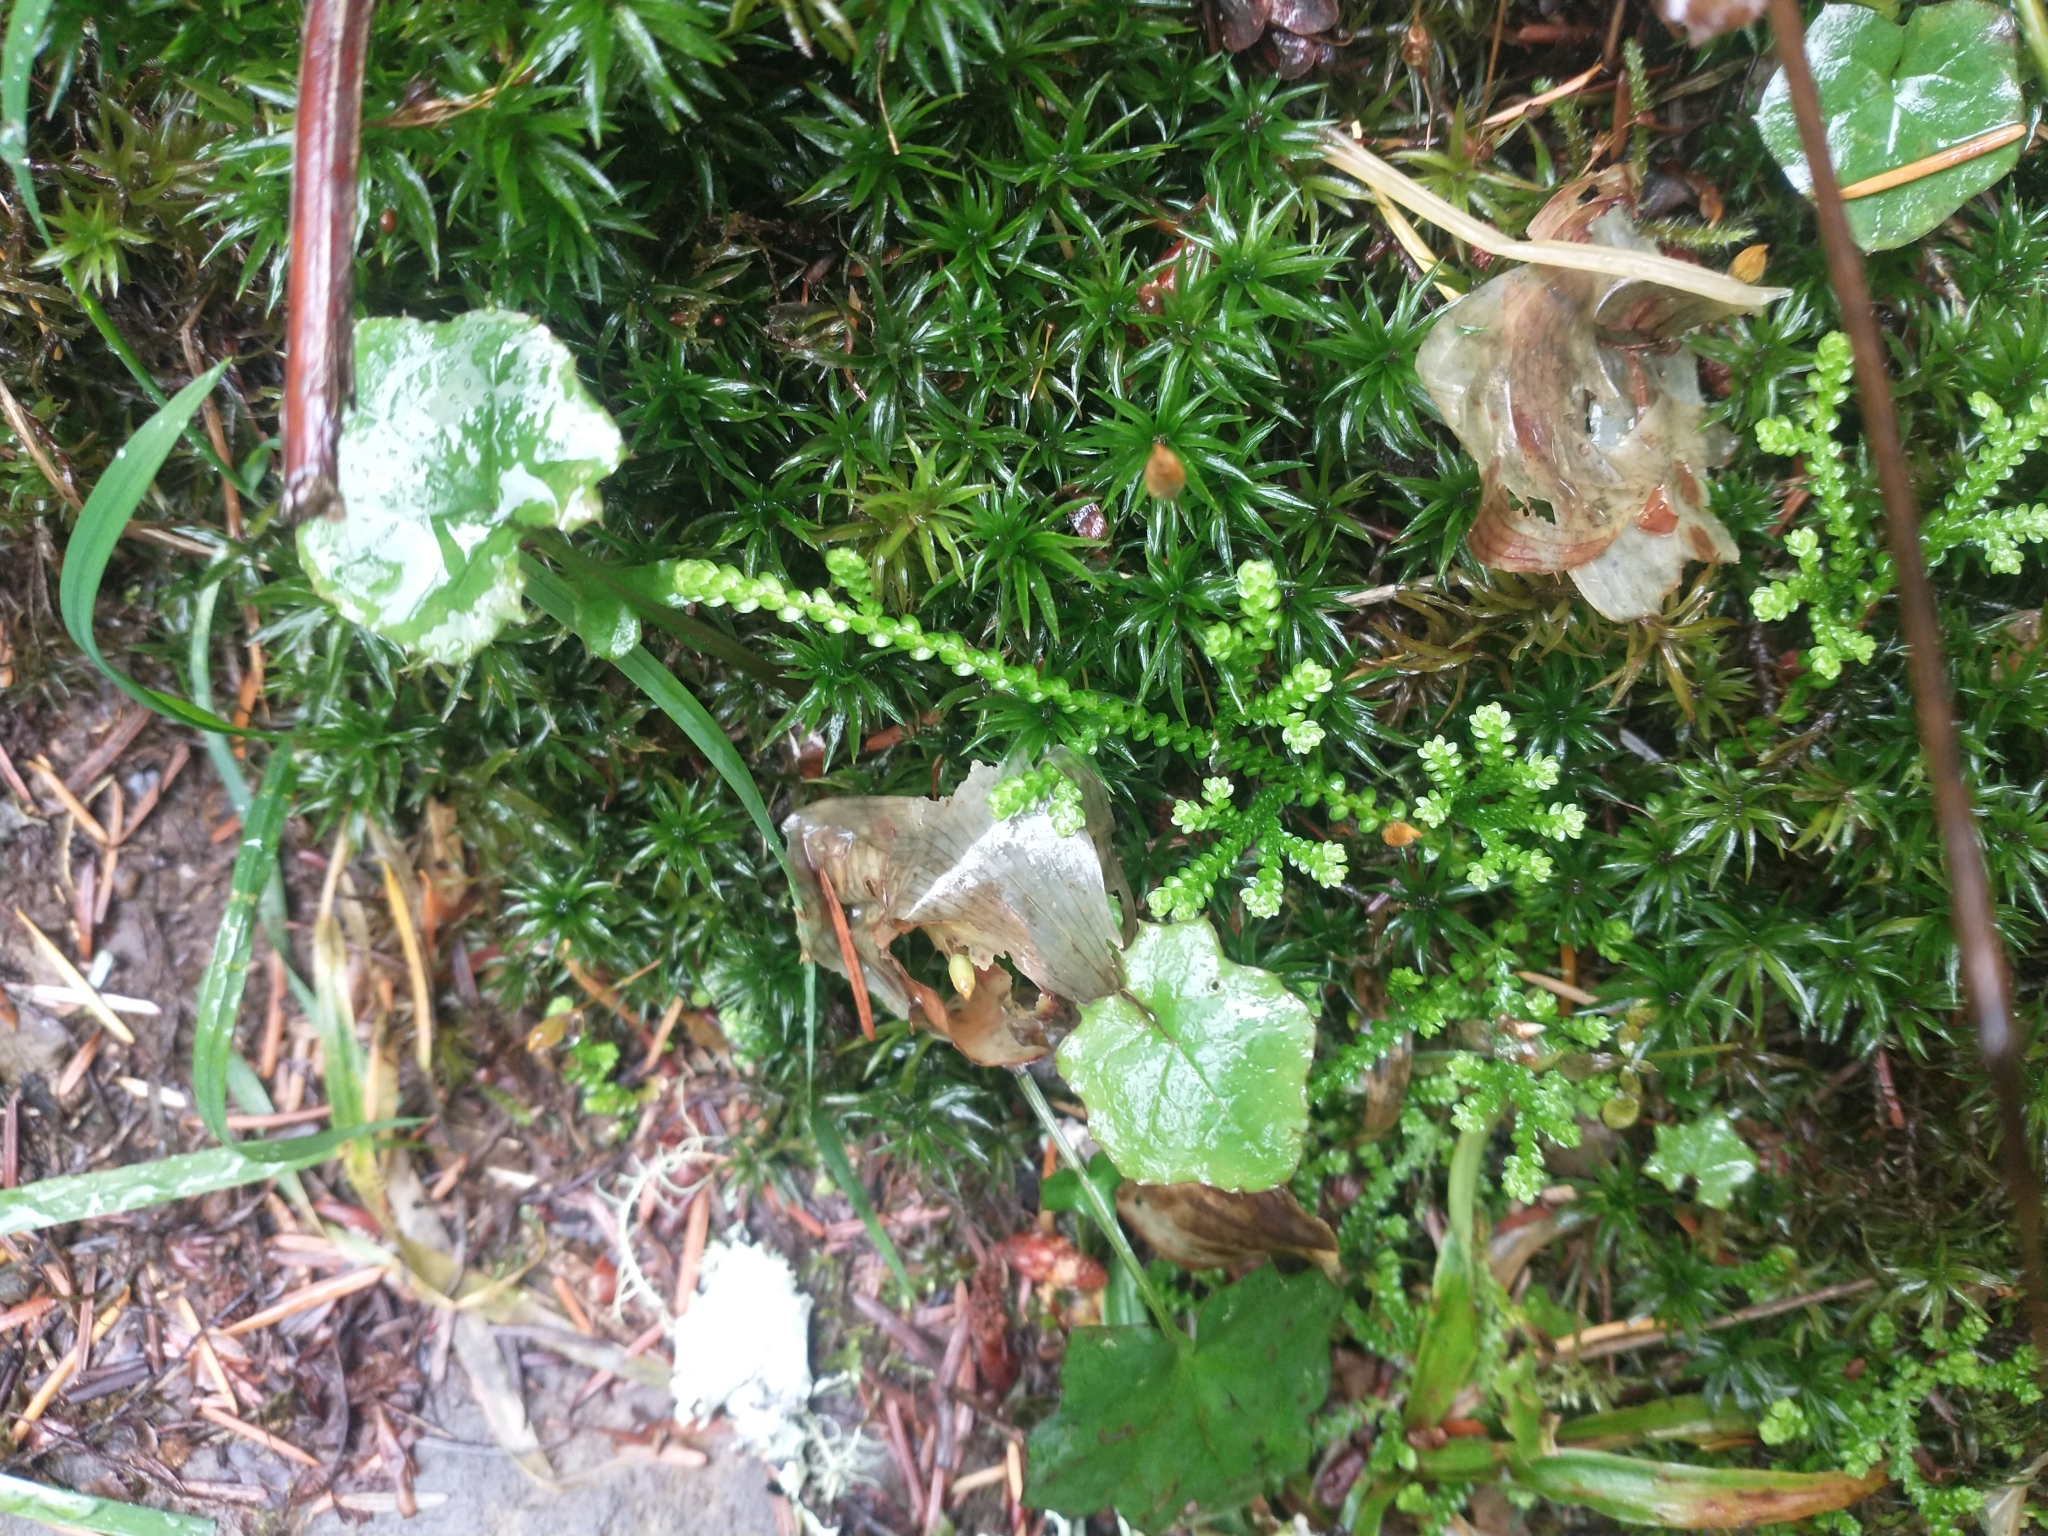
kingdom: Plantae
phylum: Tracheophyta
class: Lycopodiopsida
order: Selaginellales
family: Selaginellaceae
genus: Selaginella
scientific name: Selaginella douglasii
